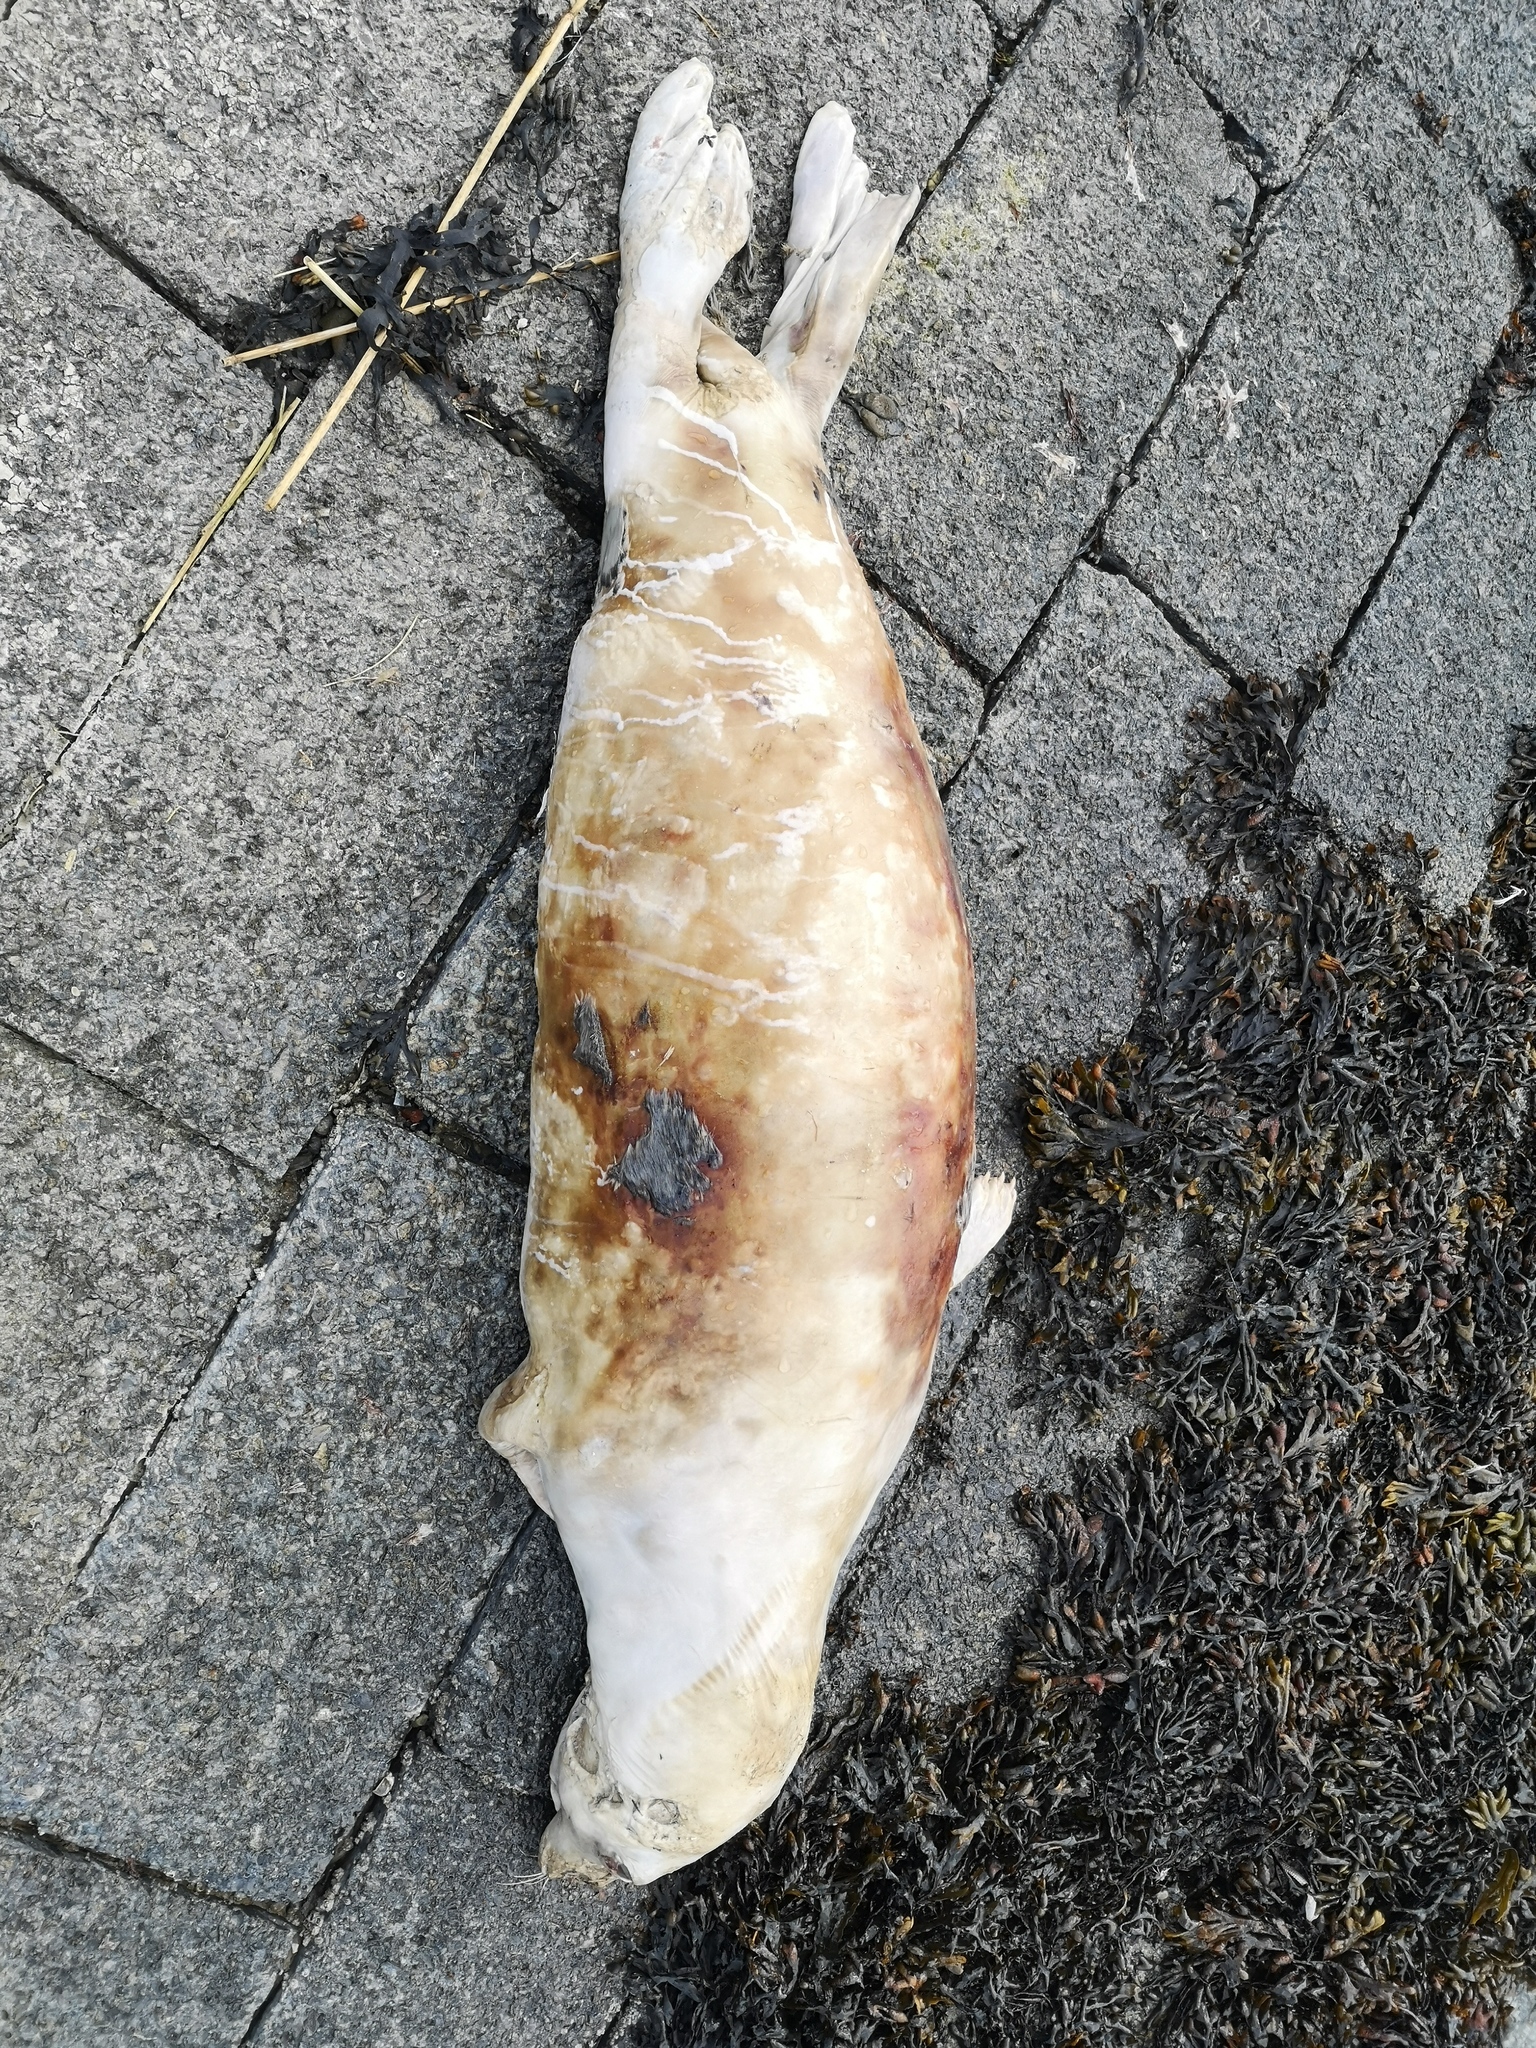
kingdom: Animalia
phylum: Chordata
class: Mammalia
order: Carnivora
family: Phocidae
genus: Phoca
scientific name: Phoca vitulina
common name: Harbor seal
